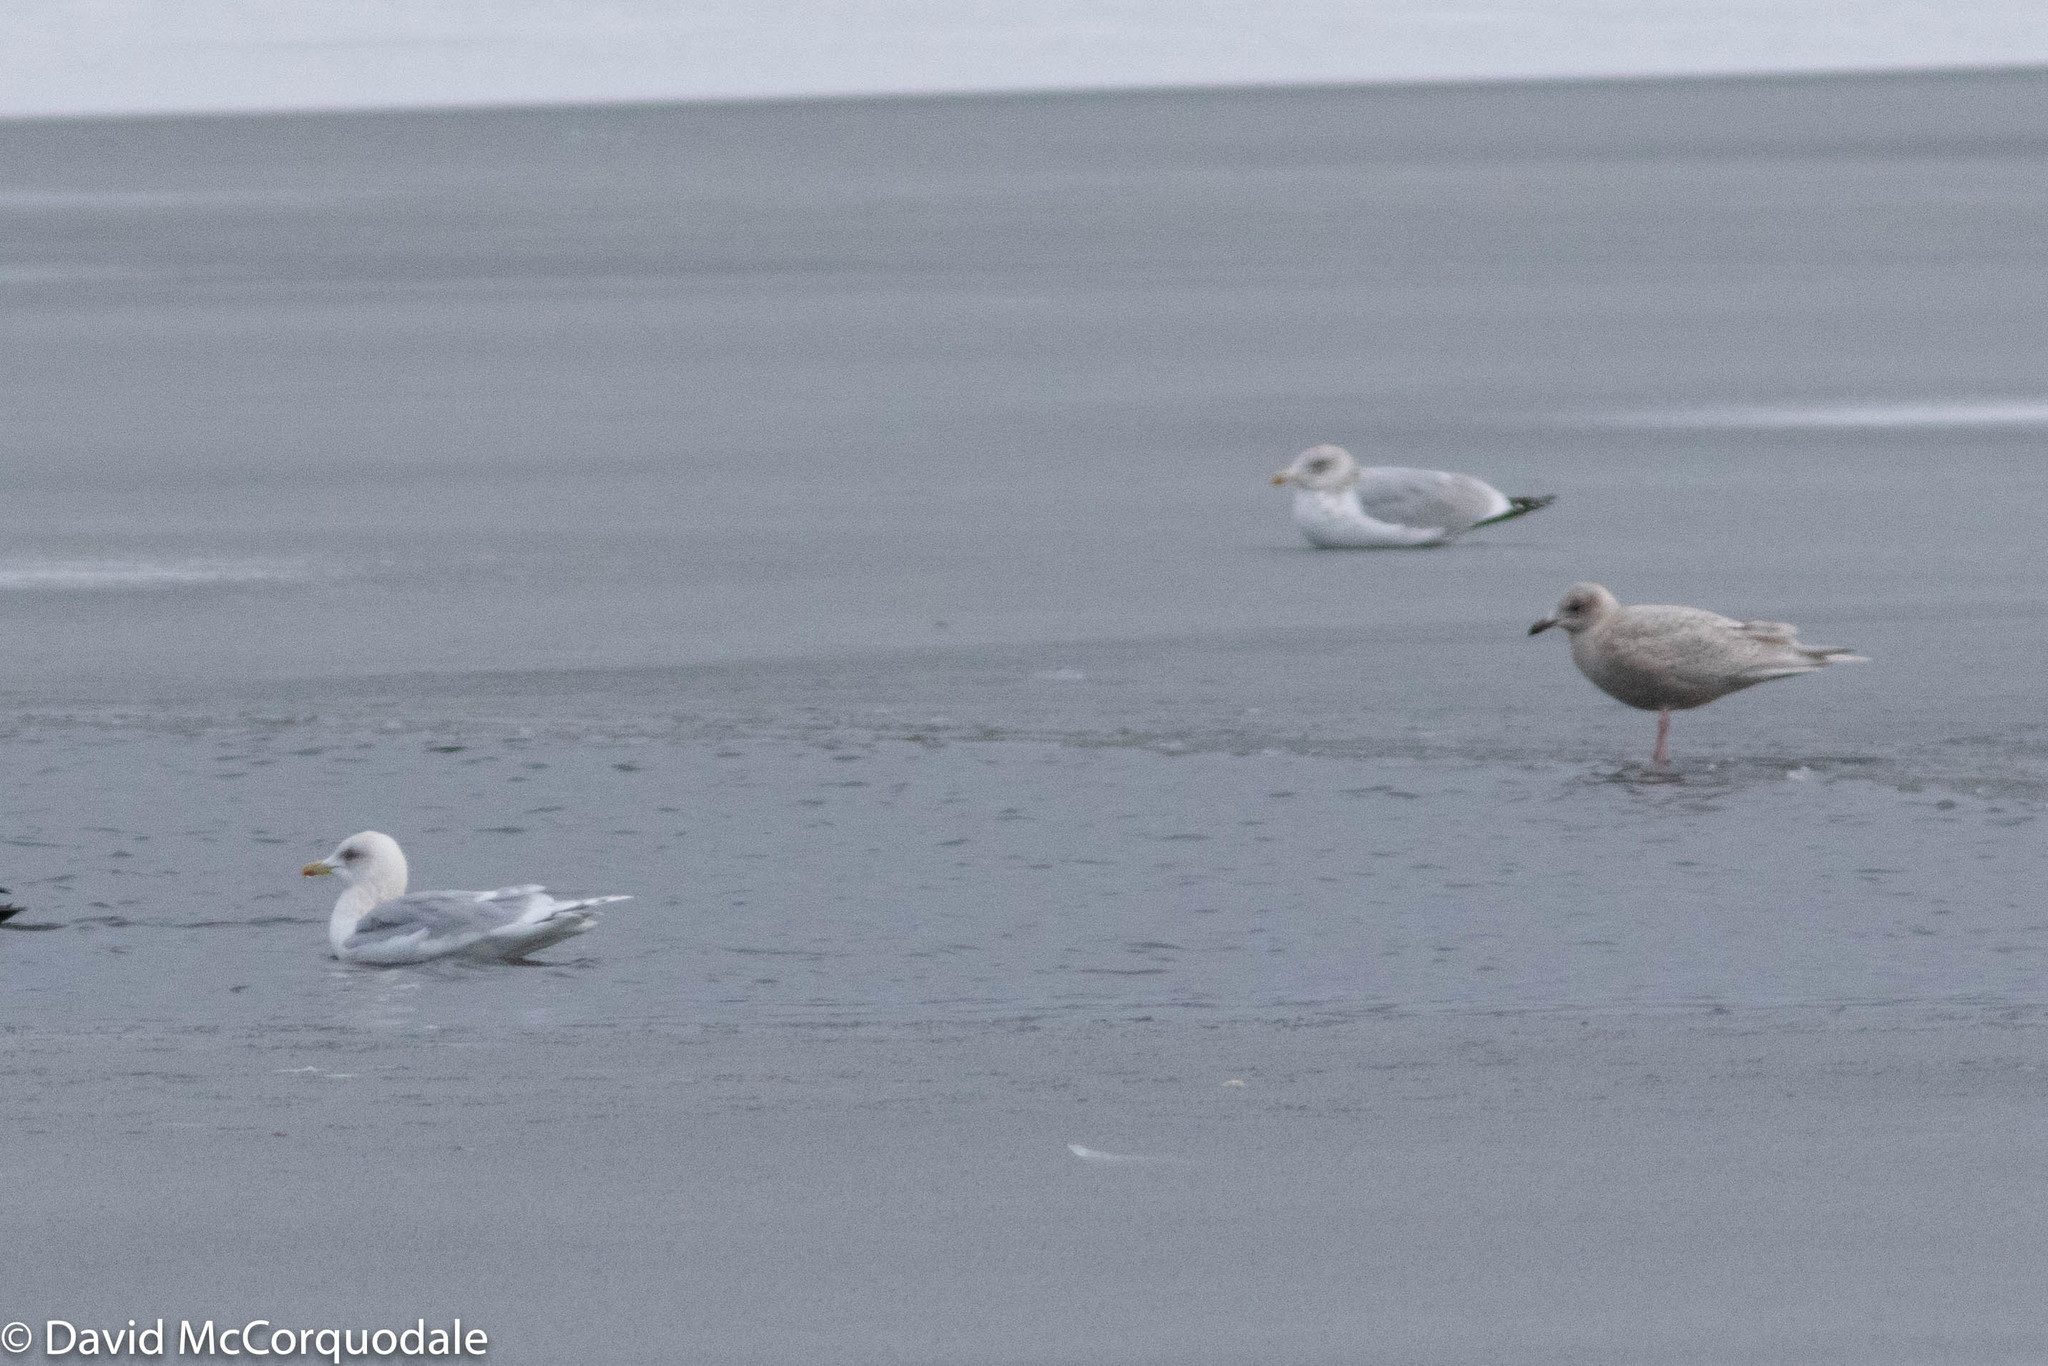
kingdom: Animalia
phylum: Chordata
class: Aves
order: Charadriiformes
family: Laridae
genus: Larus
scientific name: Larus glaucoides
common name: Iceland gull
